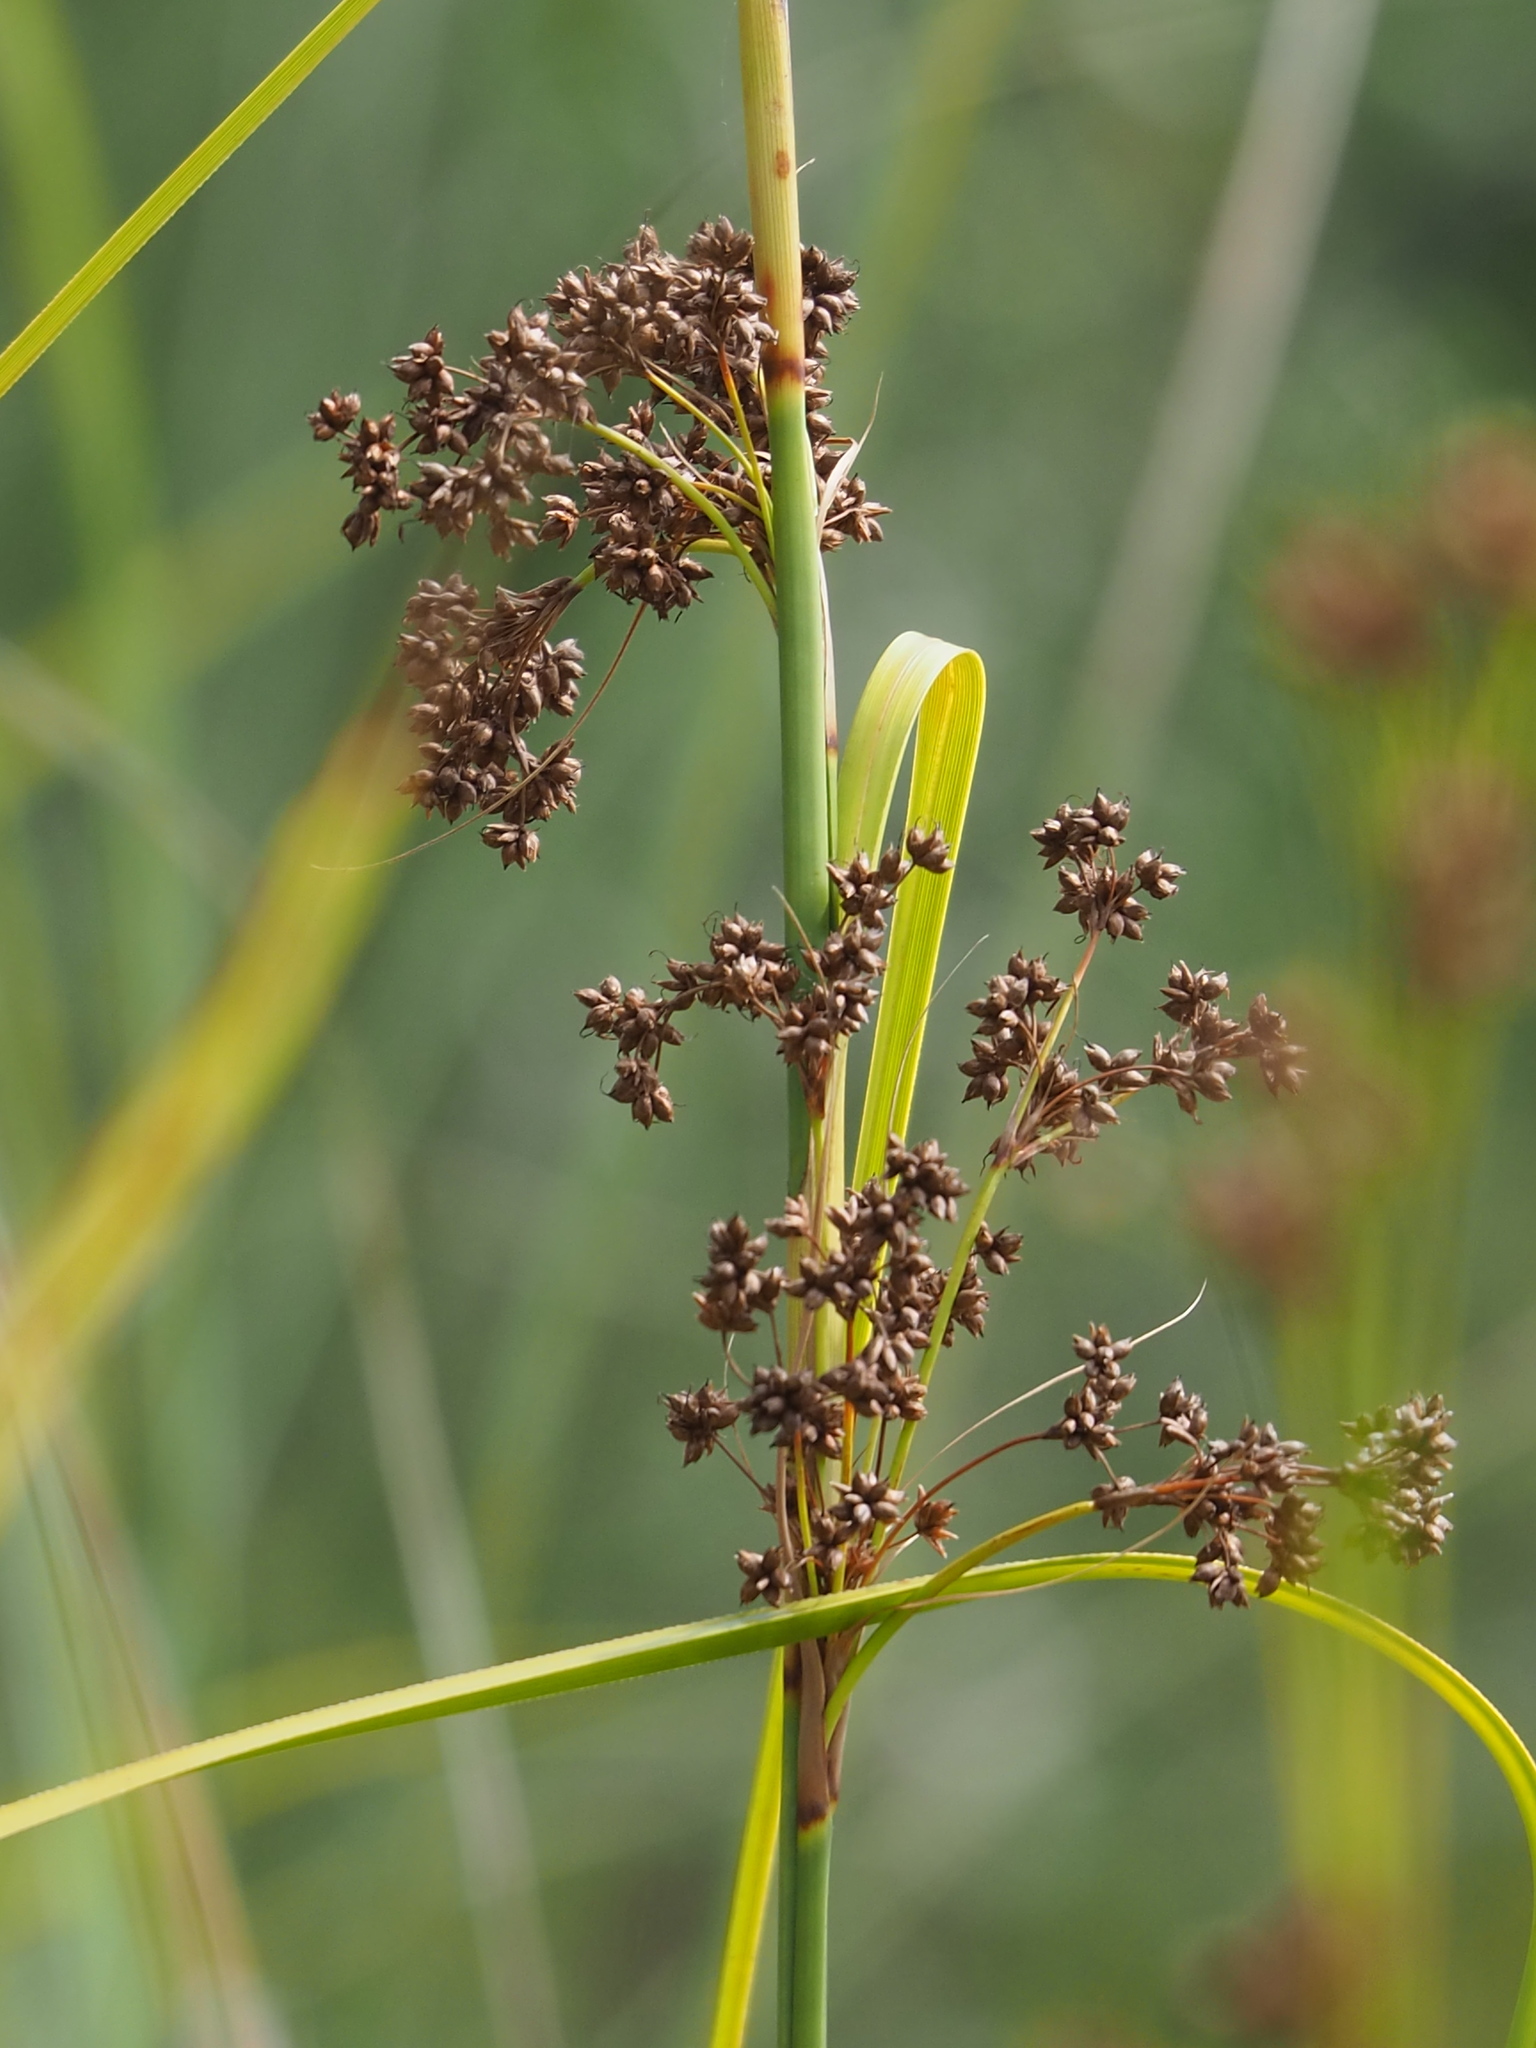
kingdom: Plantae
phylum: Tracheophyta
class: Liliopsida
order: Poales
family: Cyperaceae
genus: Cladium
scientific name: Cladium mariscus
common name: Great fen-sedge
